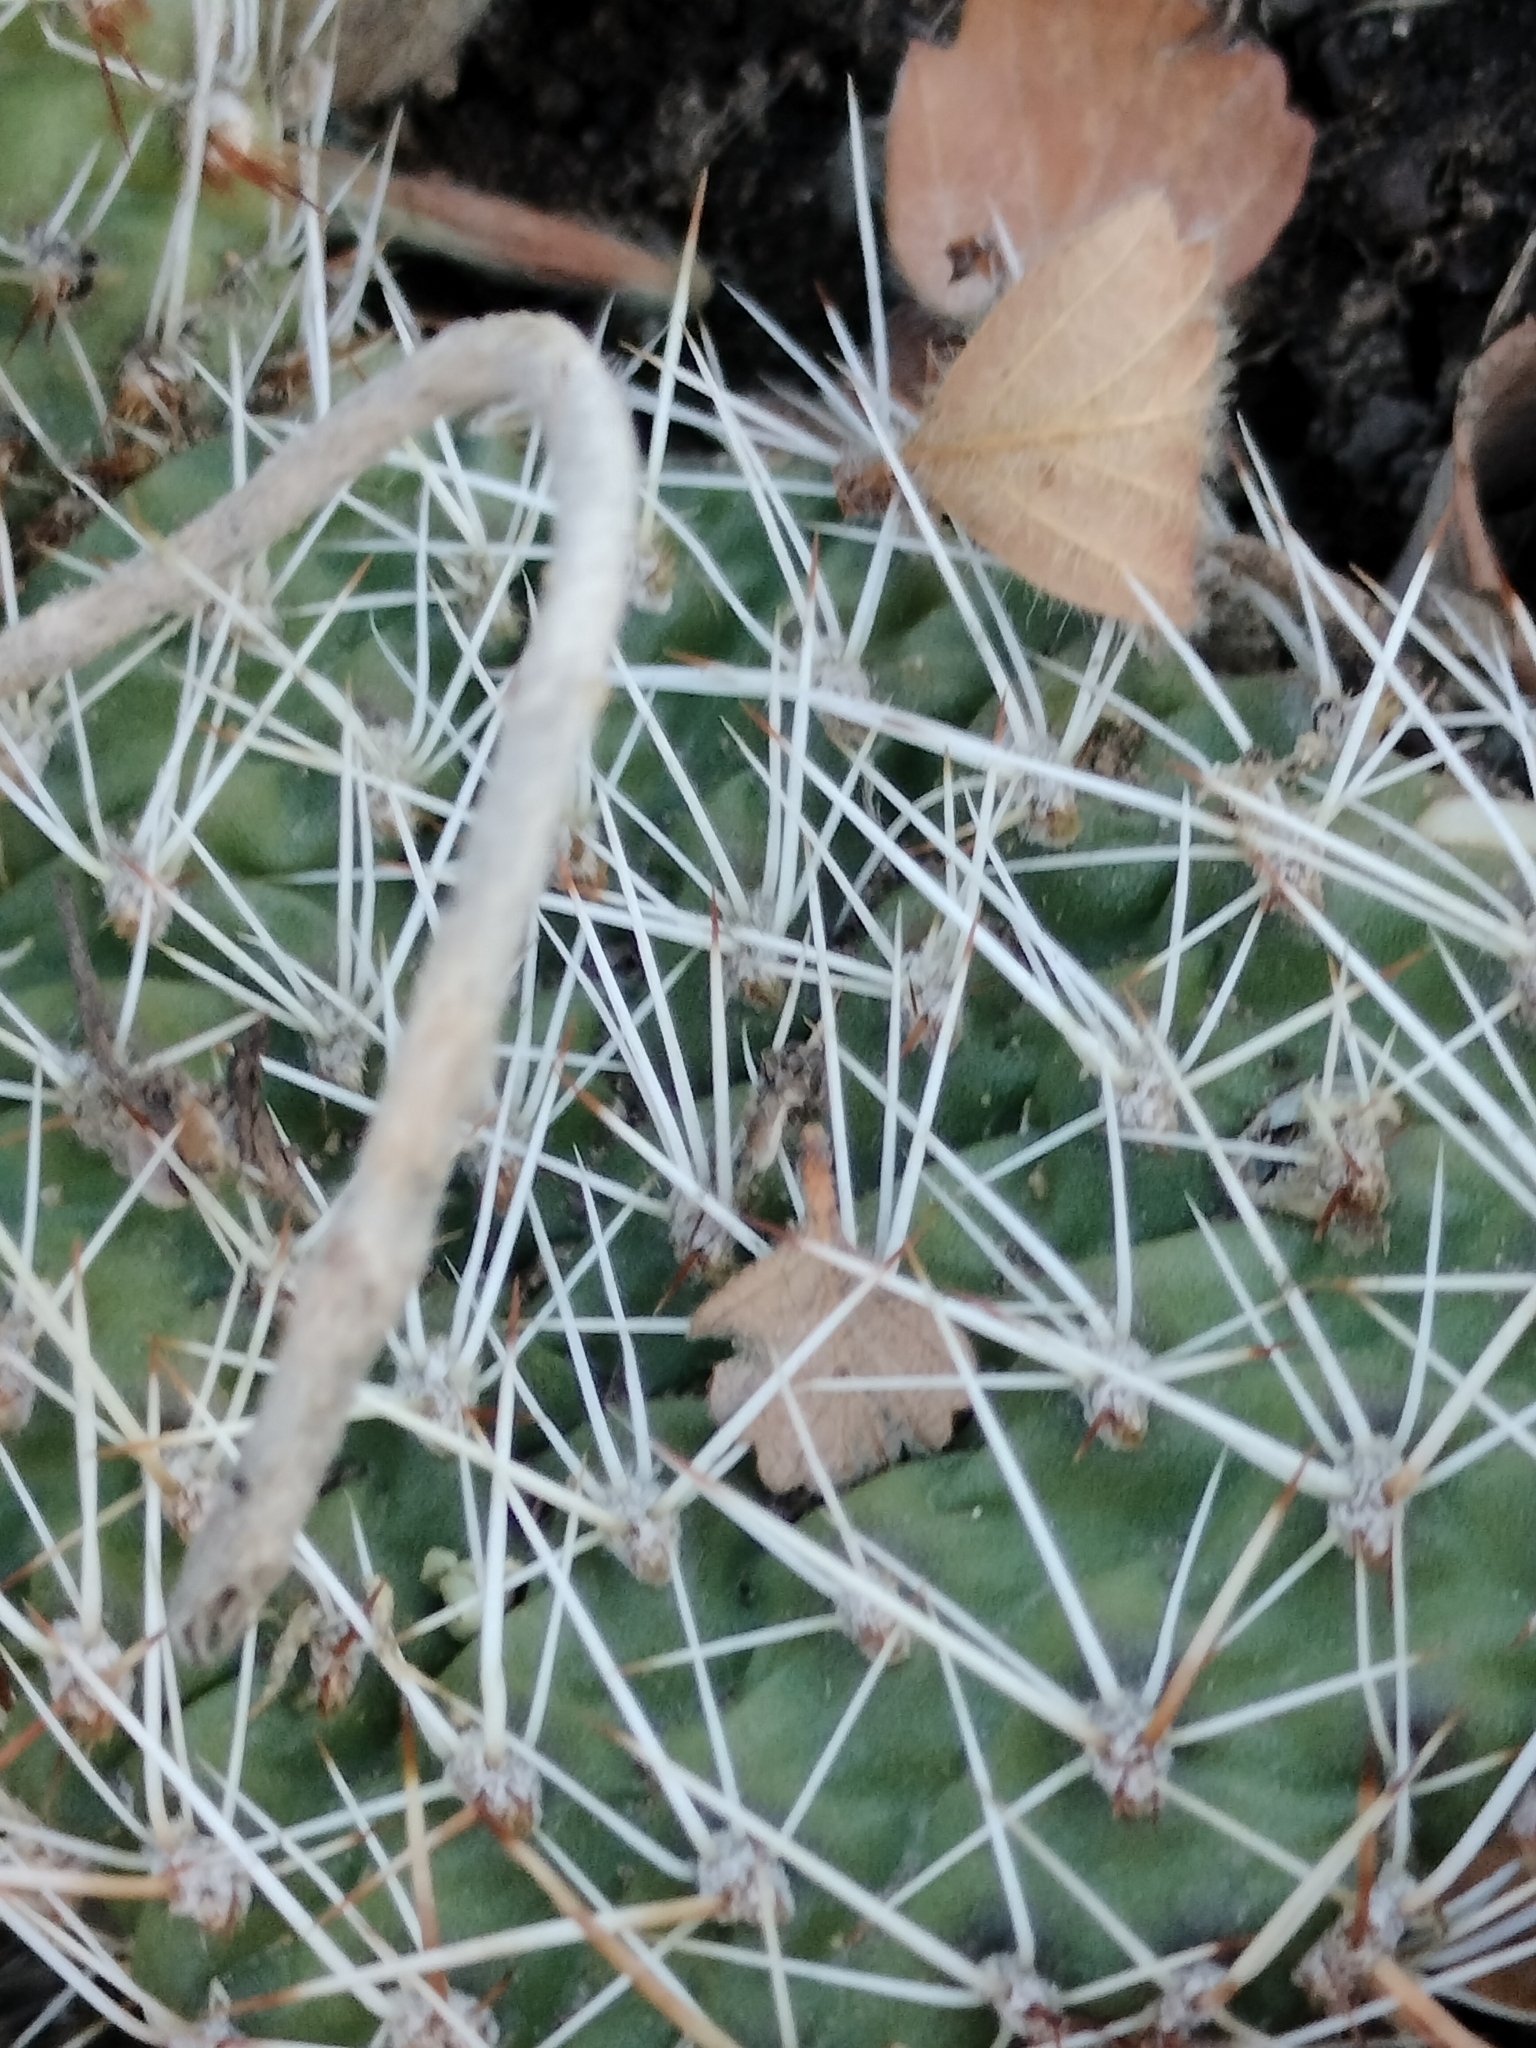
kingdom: Plantae
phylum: Tracheophyta
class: Magnoliopsida
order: Caryophyllales
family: Cactaceae
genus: Opuntia
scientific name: Opuntia polyacantha
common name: Plains prickly-pear
